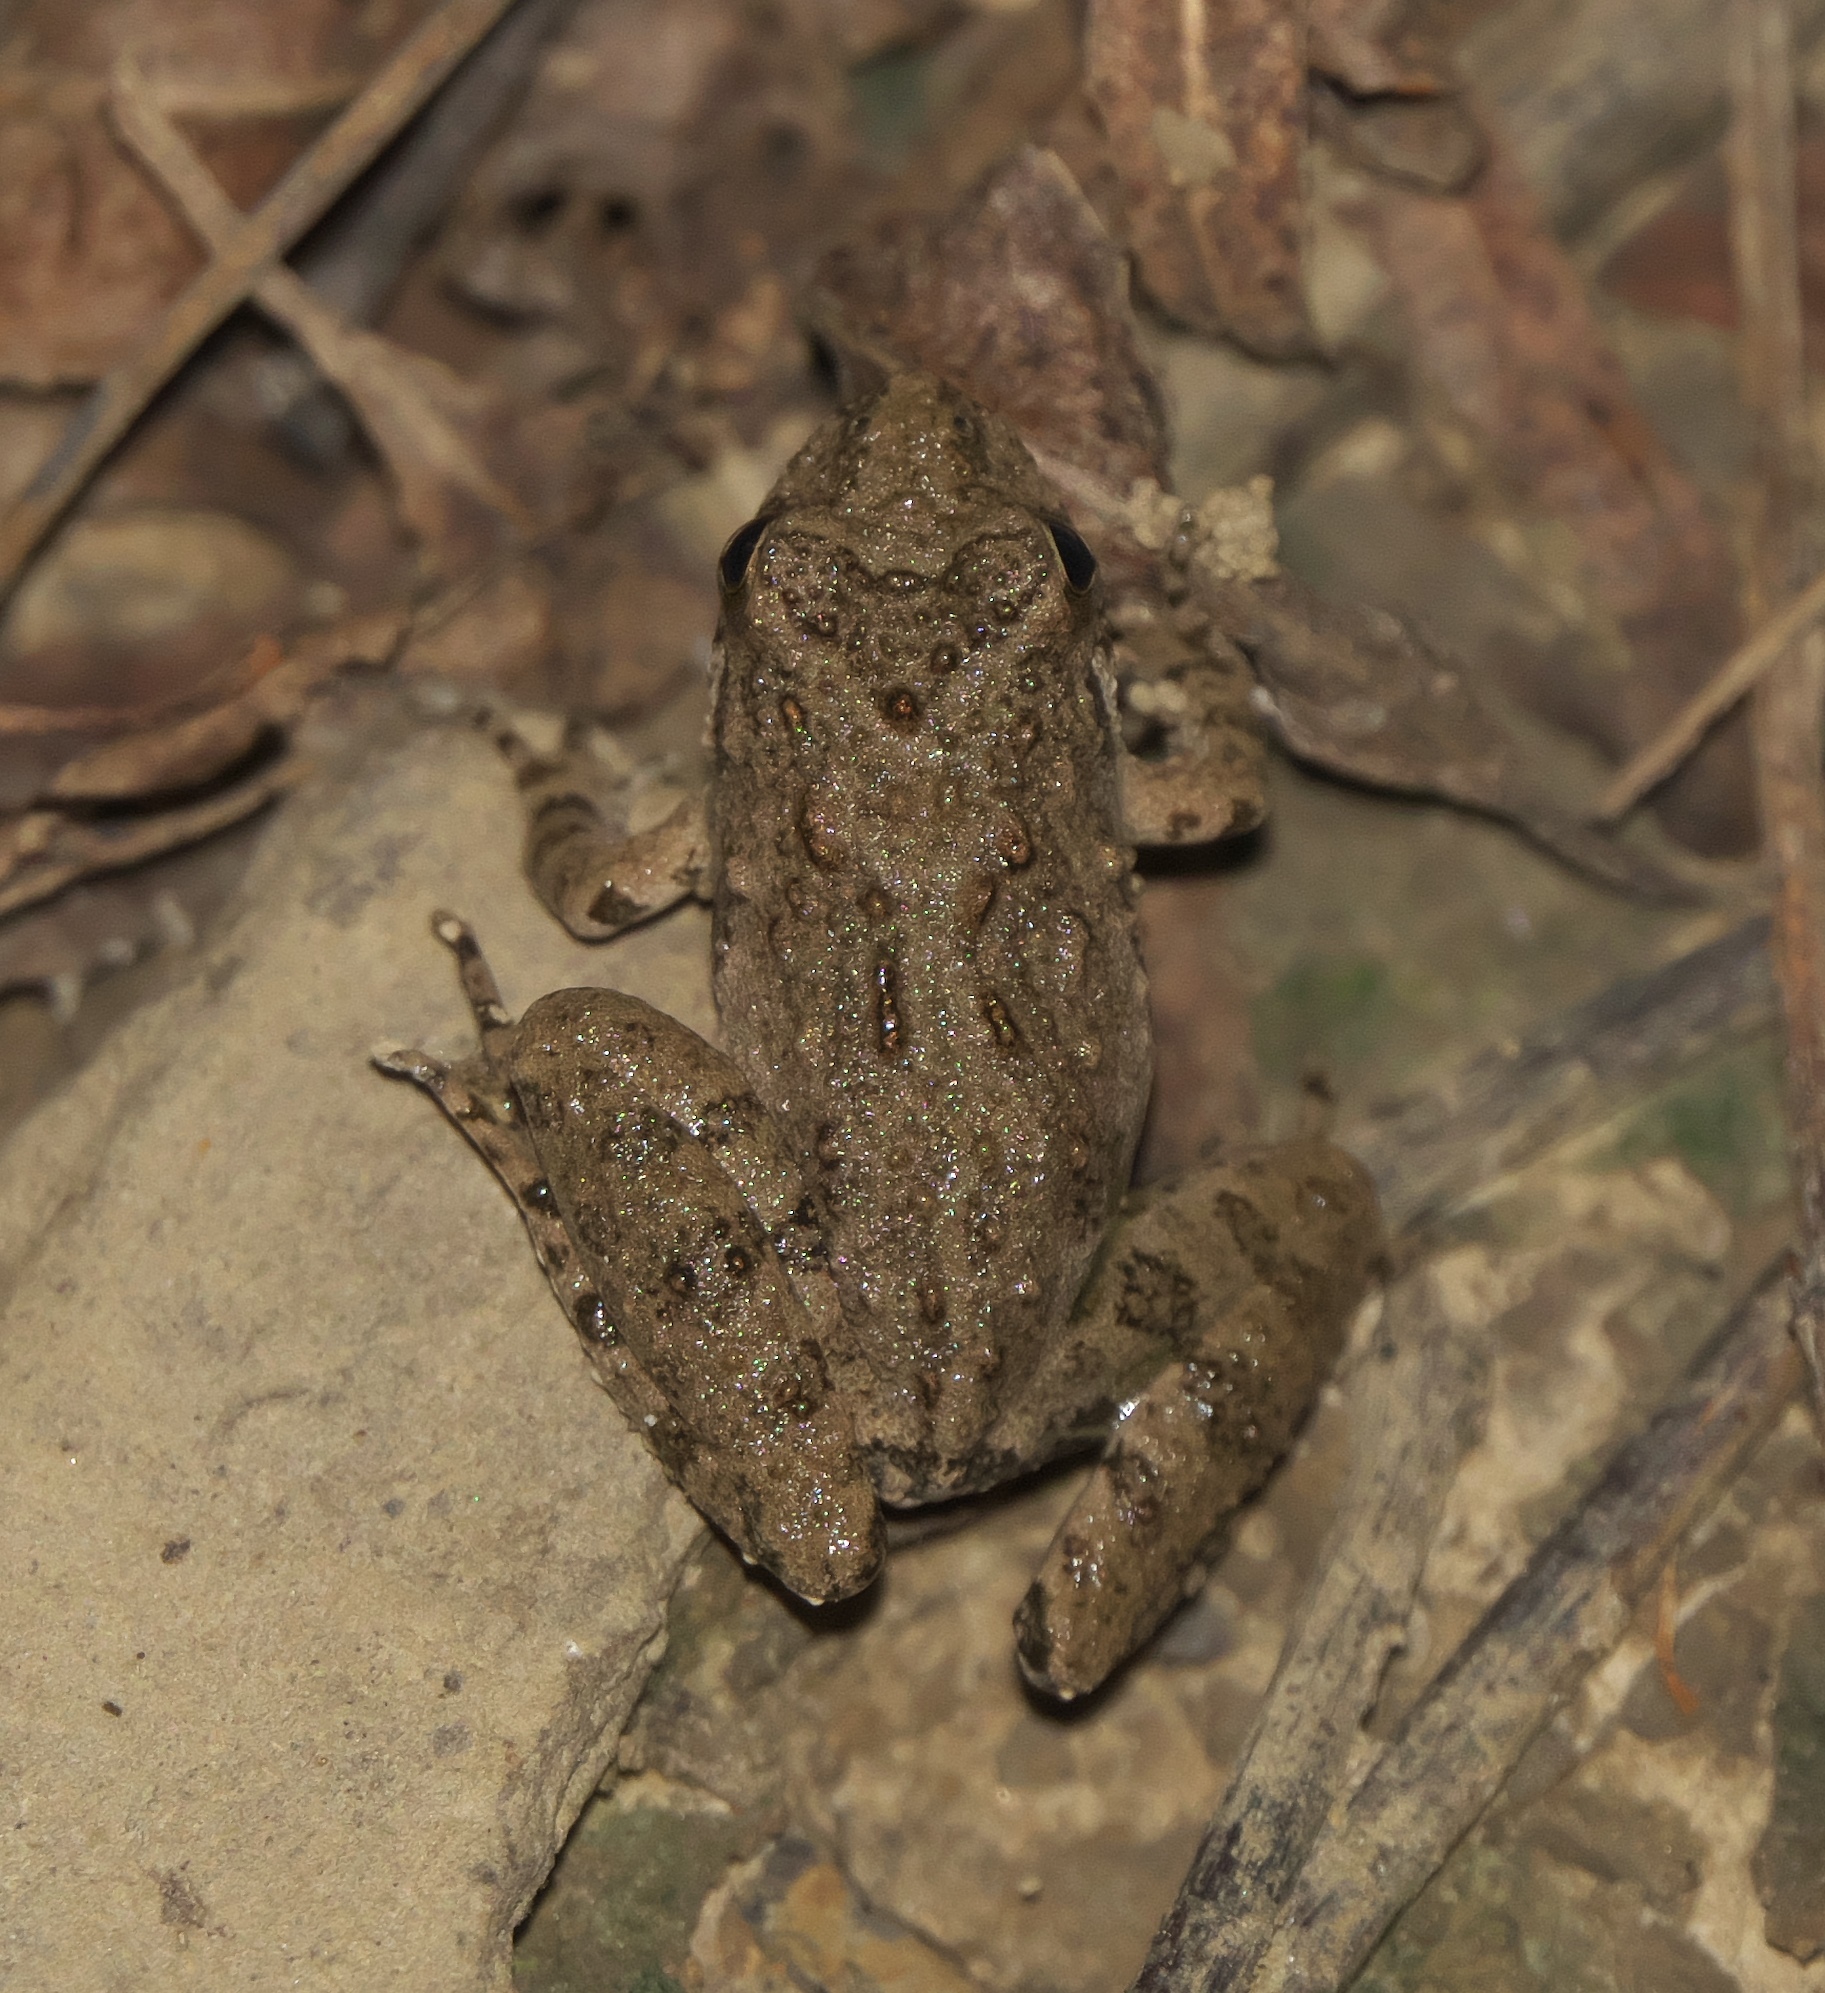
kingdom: Animalia
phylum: Chordata
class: Amphibia
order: Anura
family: Hylidae
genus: Acris
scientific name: Acris blanchardi
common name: Blanchard's cricket frog
